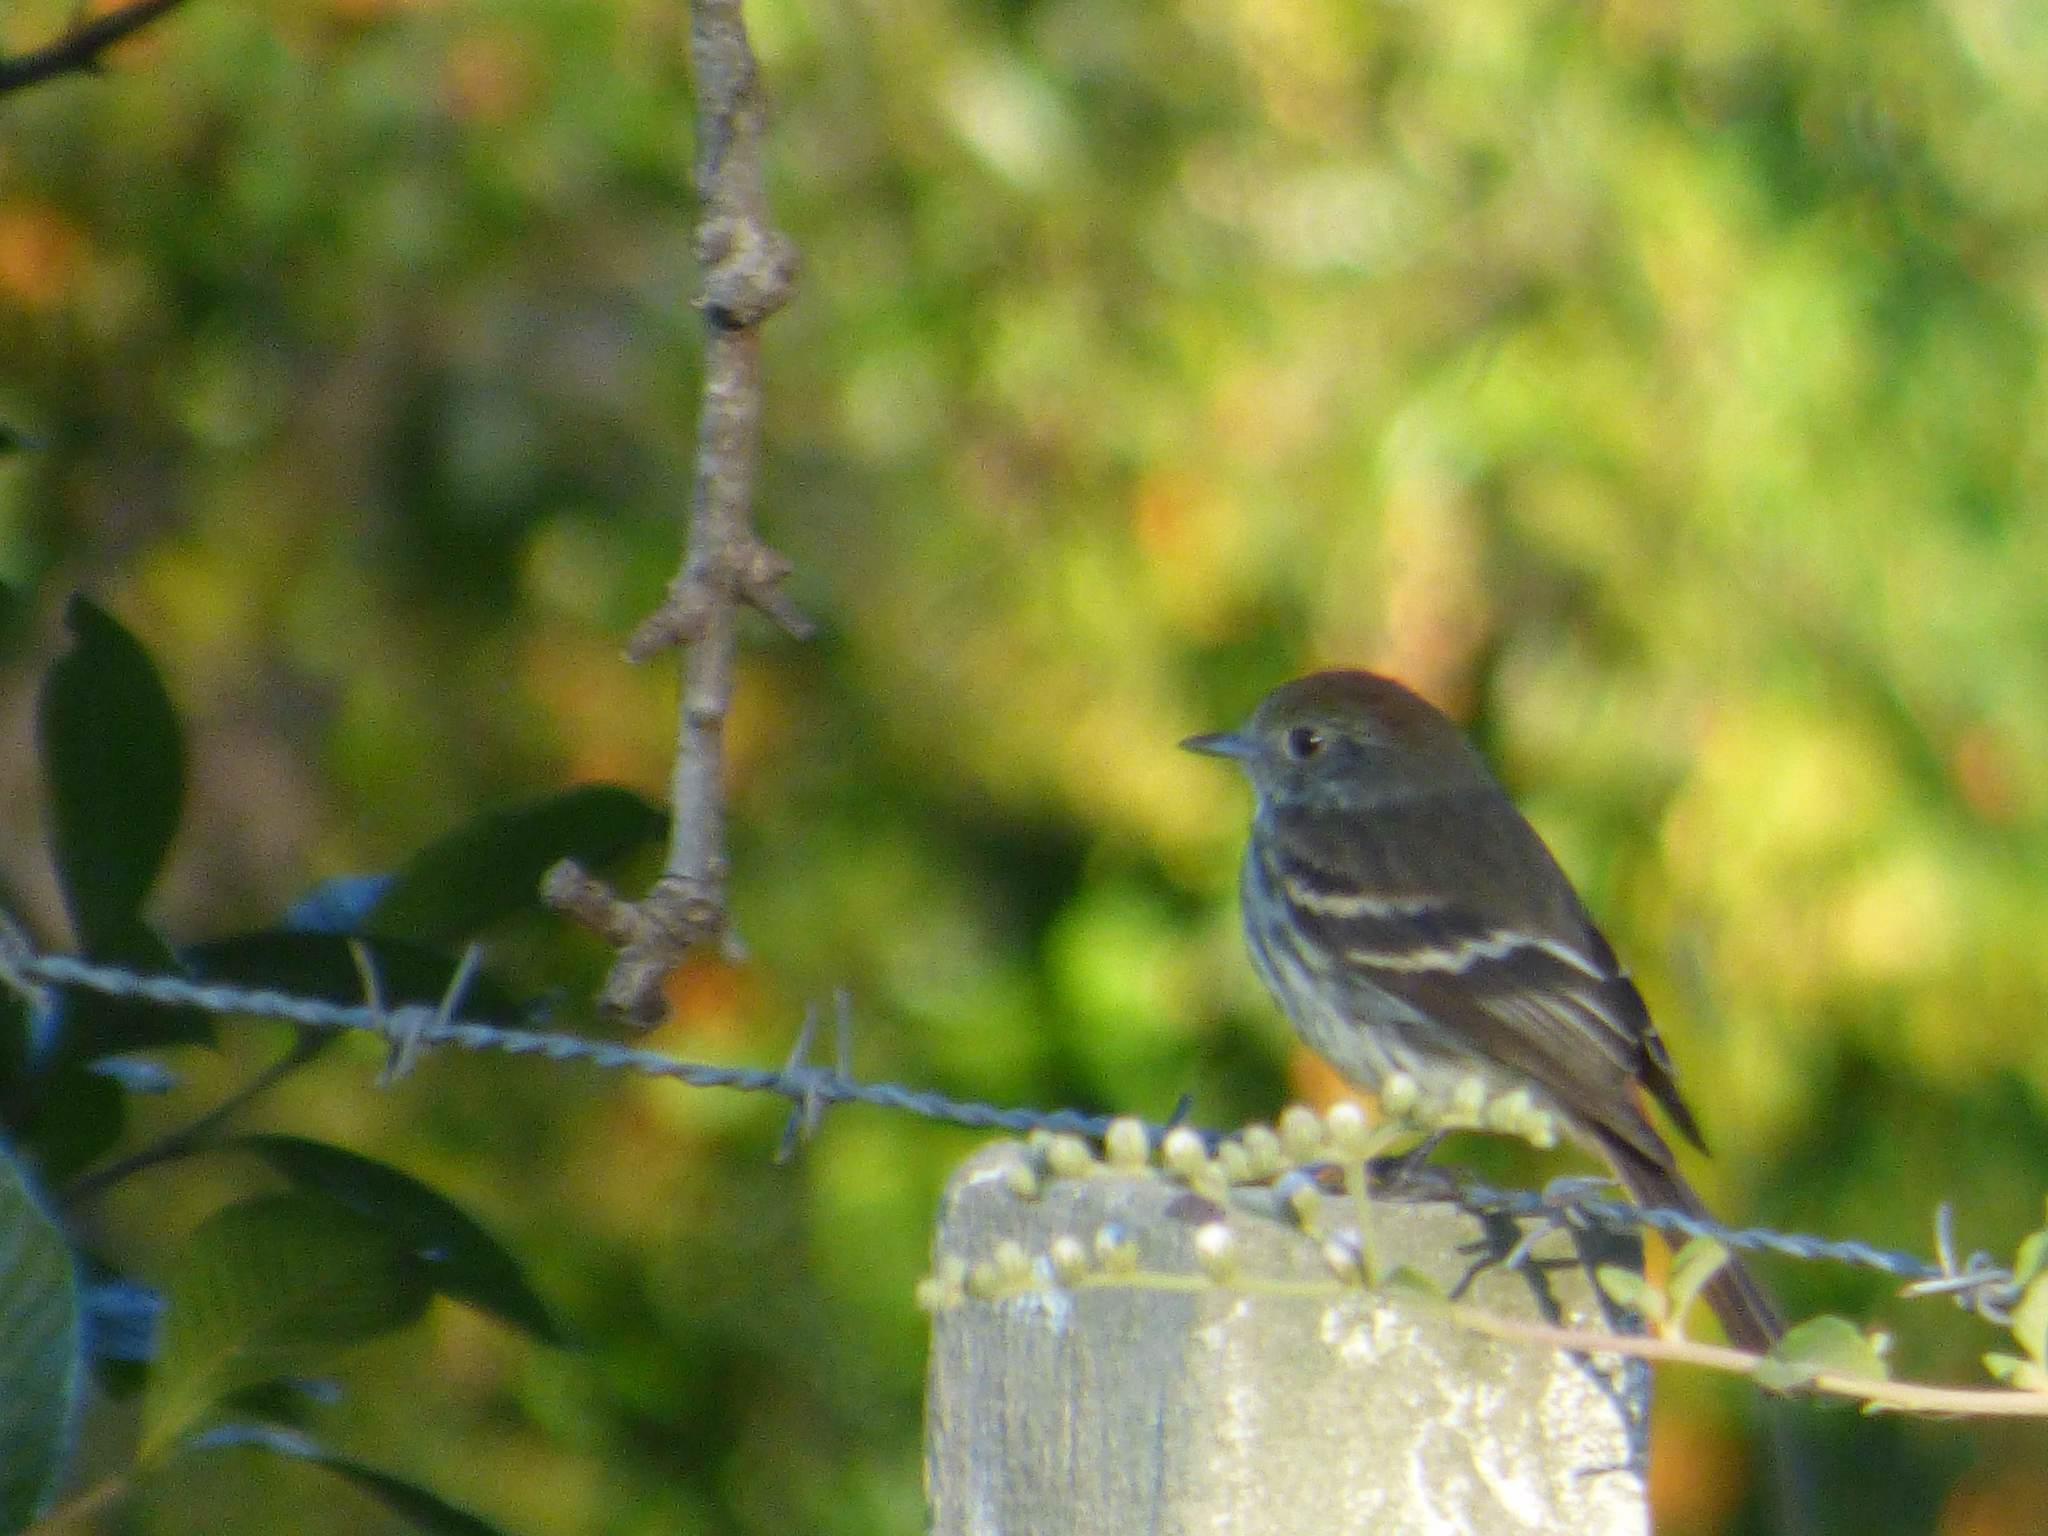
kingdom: Animalia
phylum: Chordata
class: Aves
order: Passeriformes
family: Tyrannidae
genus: Knipolegus
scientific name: Knipolegus cyanirostris
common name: Blue-billed black tyrant
